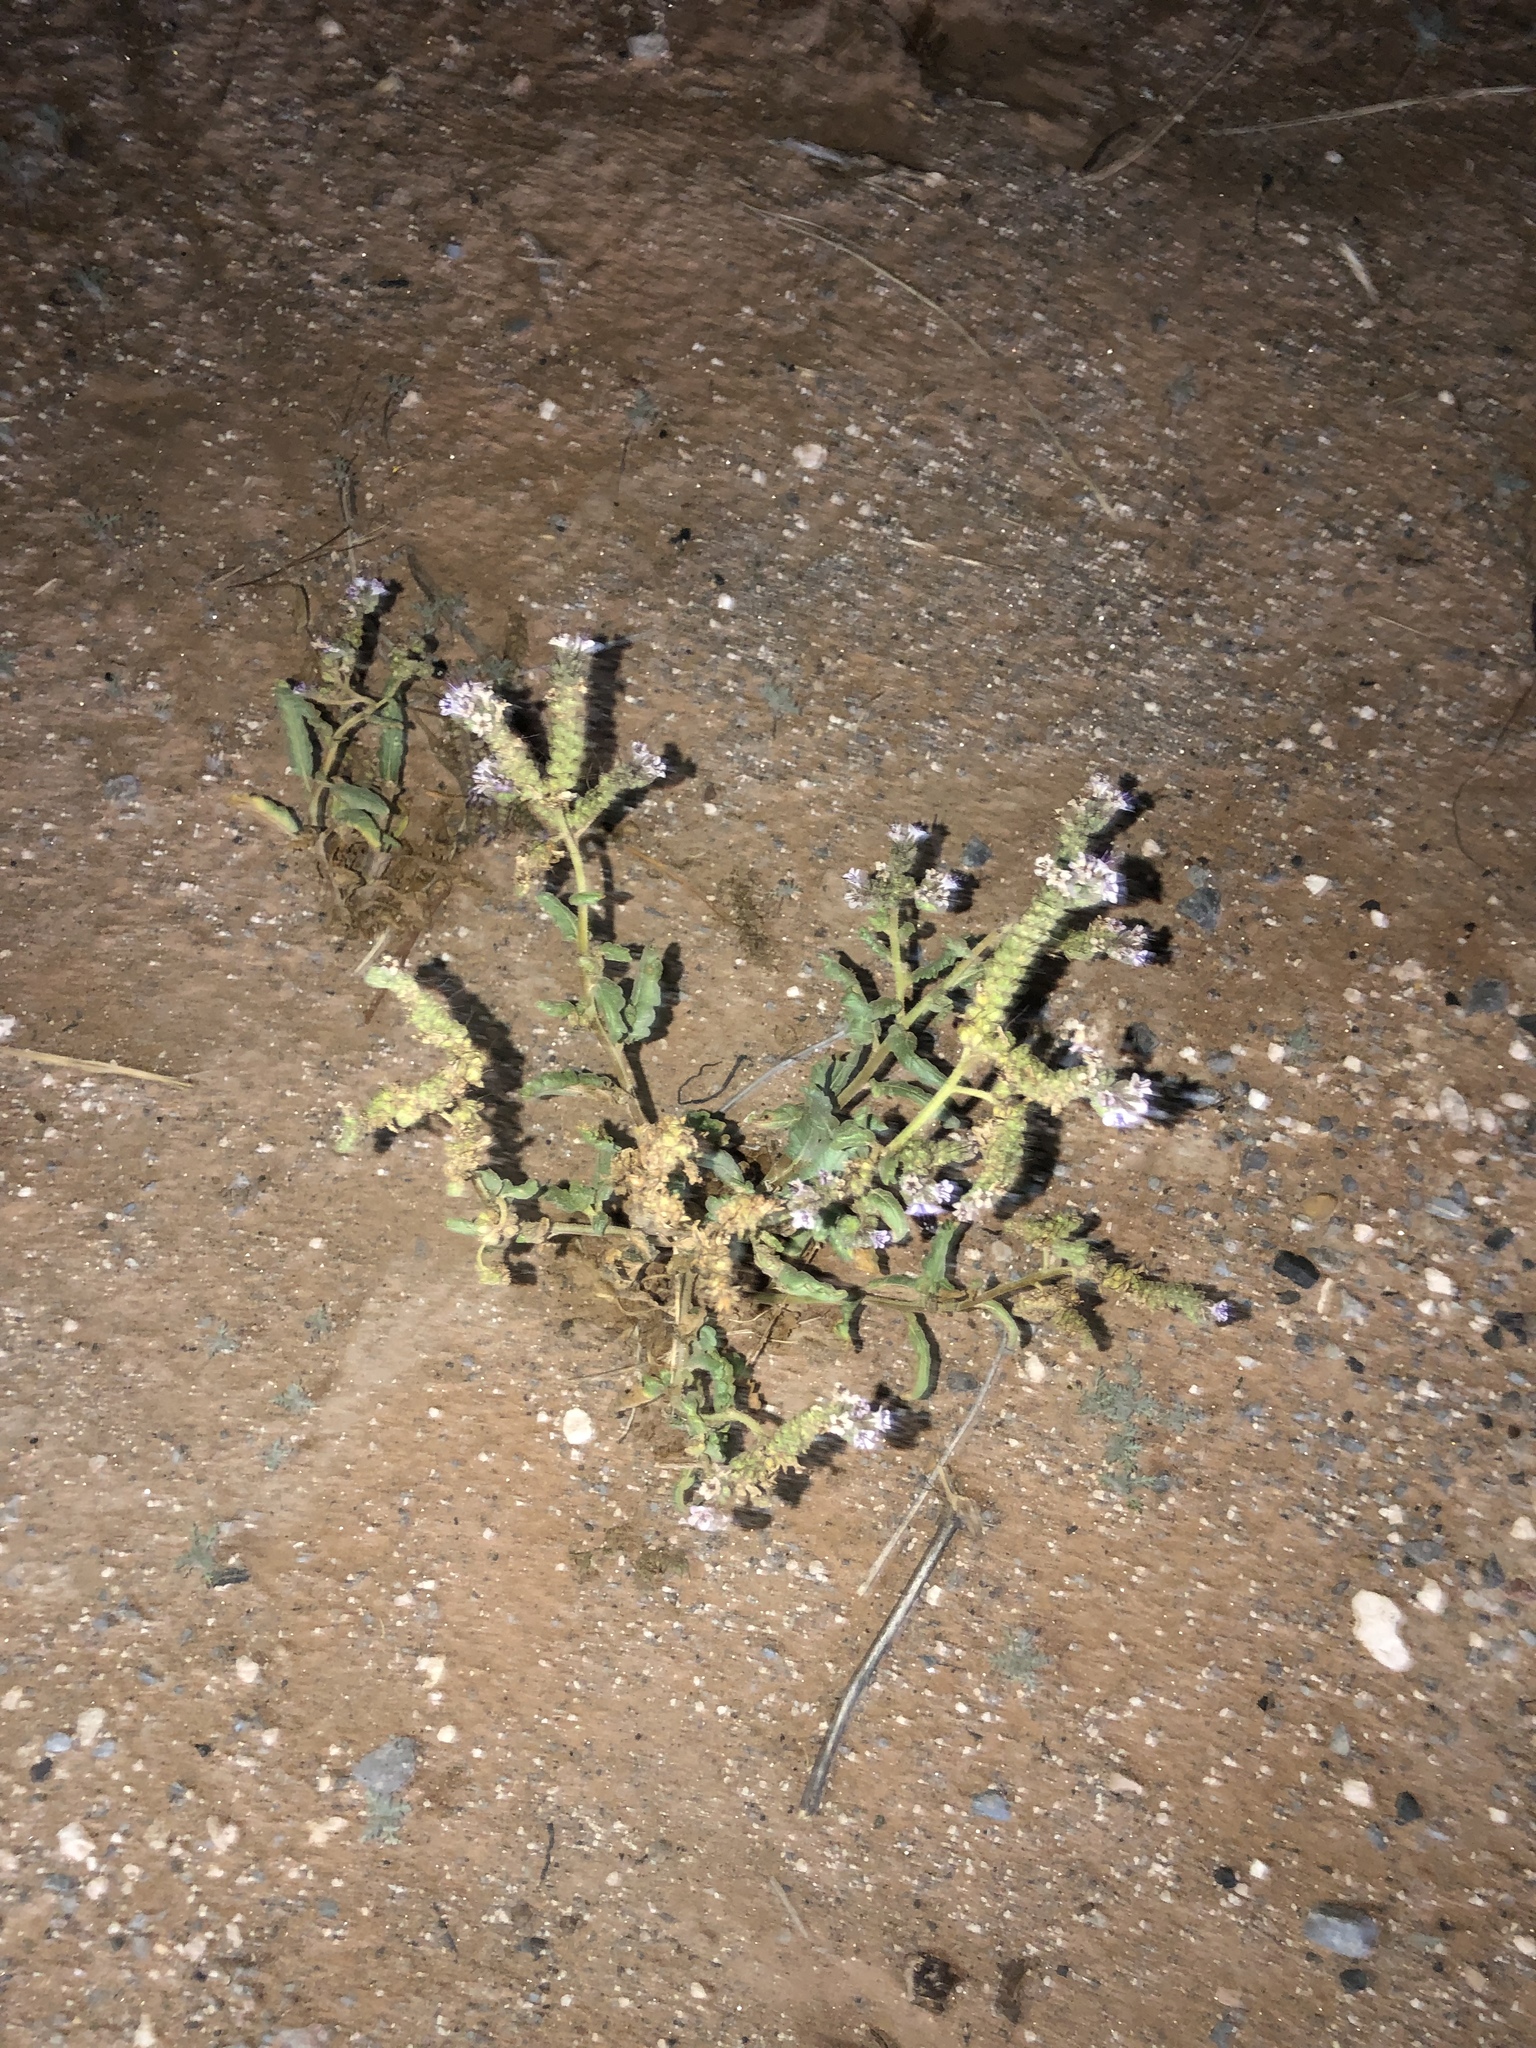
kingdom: Plantae
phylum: Tracheophyta
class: Magnoliopsida
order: Boraginales
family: Hydrophyllaceae
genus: Phacelia
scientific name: Phacelia integrifolia
